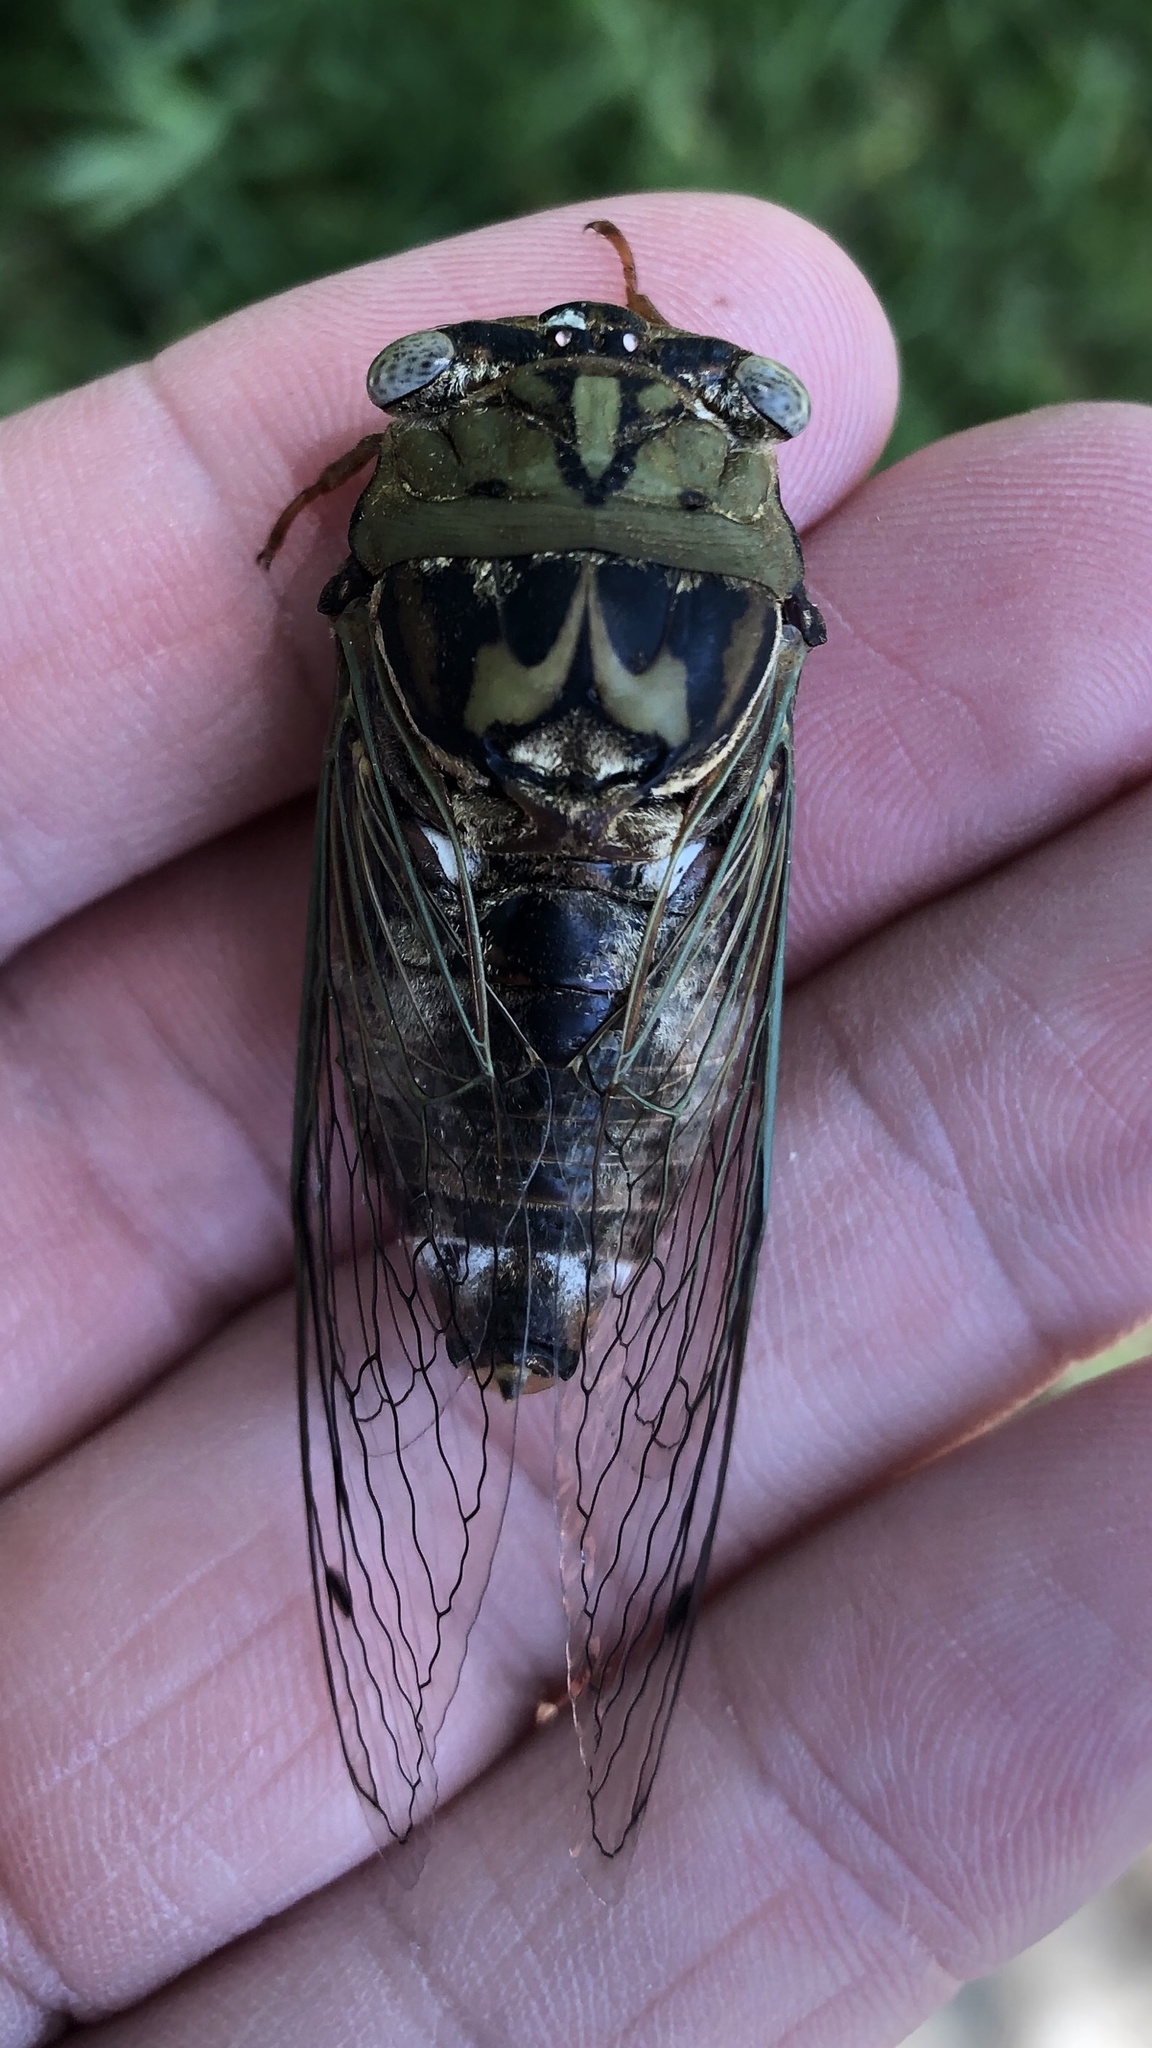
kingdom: Animalia
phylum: Arthropoda
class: Insecta
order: Hemiptera
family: Cicadidae
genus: Megatibicen
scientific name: Megatibicen resh
